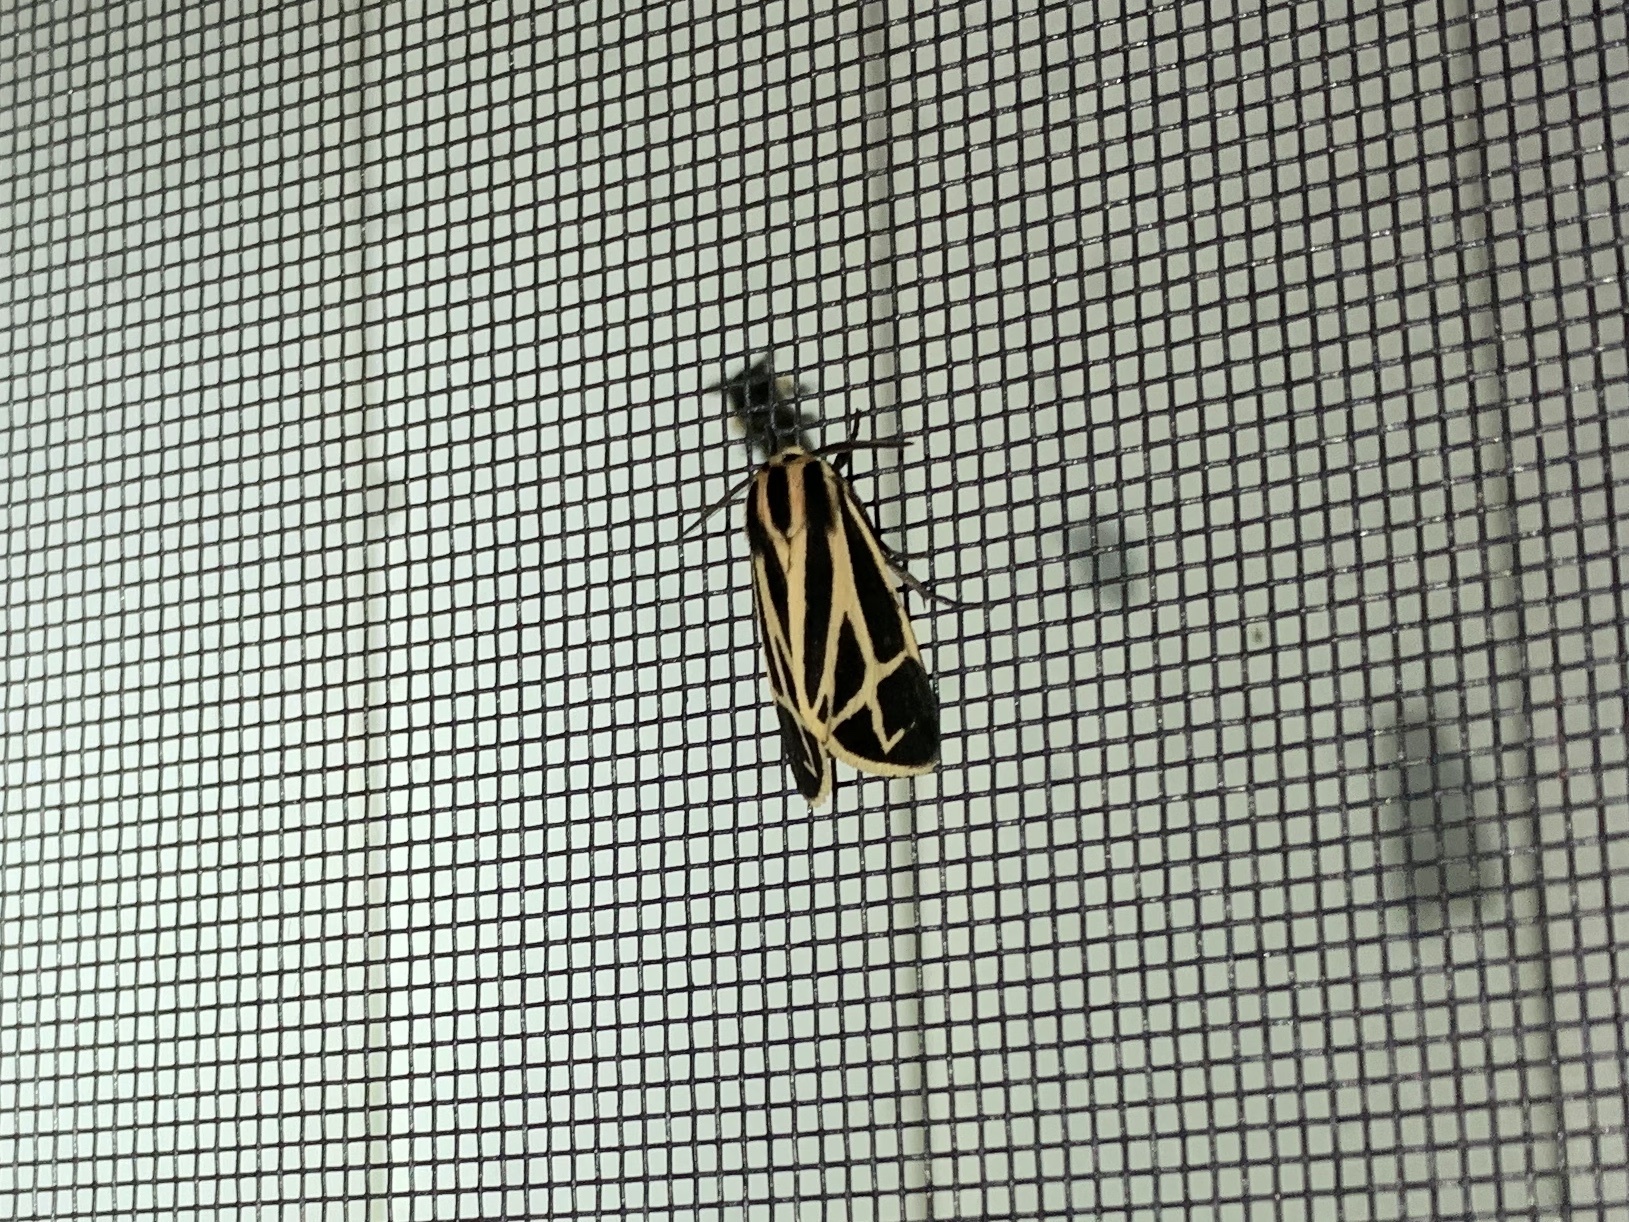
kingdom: Animalia
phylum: Arthropoda
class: Insecta
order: Lepidoptera
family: Erebidae
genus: Apantesis
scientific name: Apantesis phalerata
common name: Harnessed tiger moth
